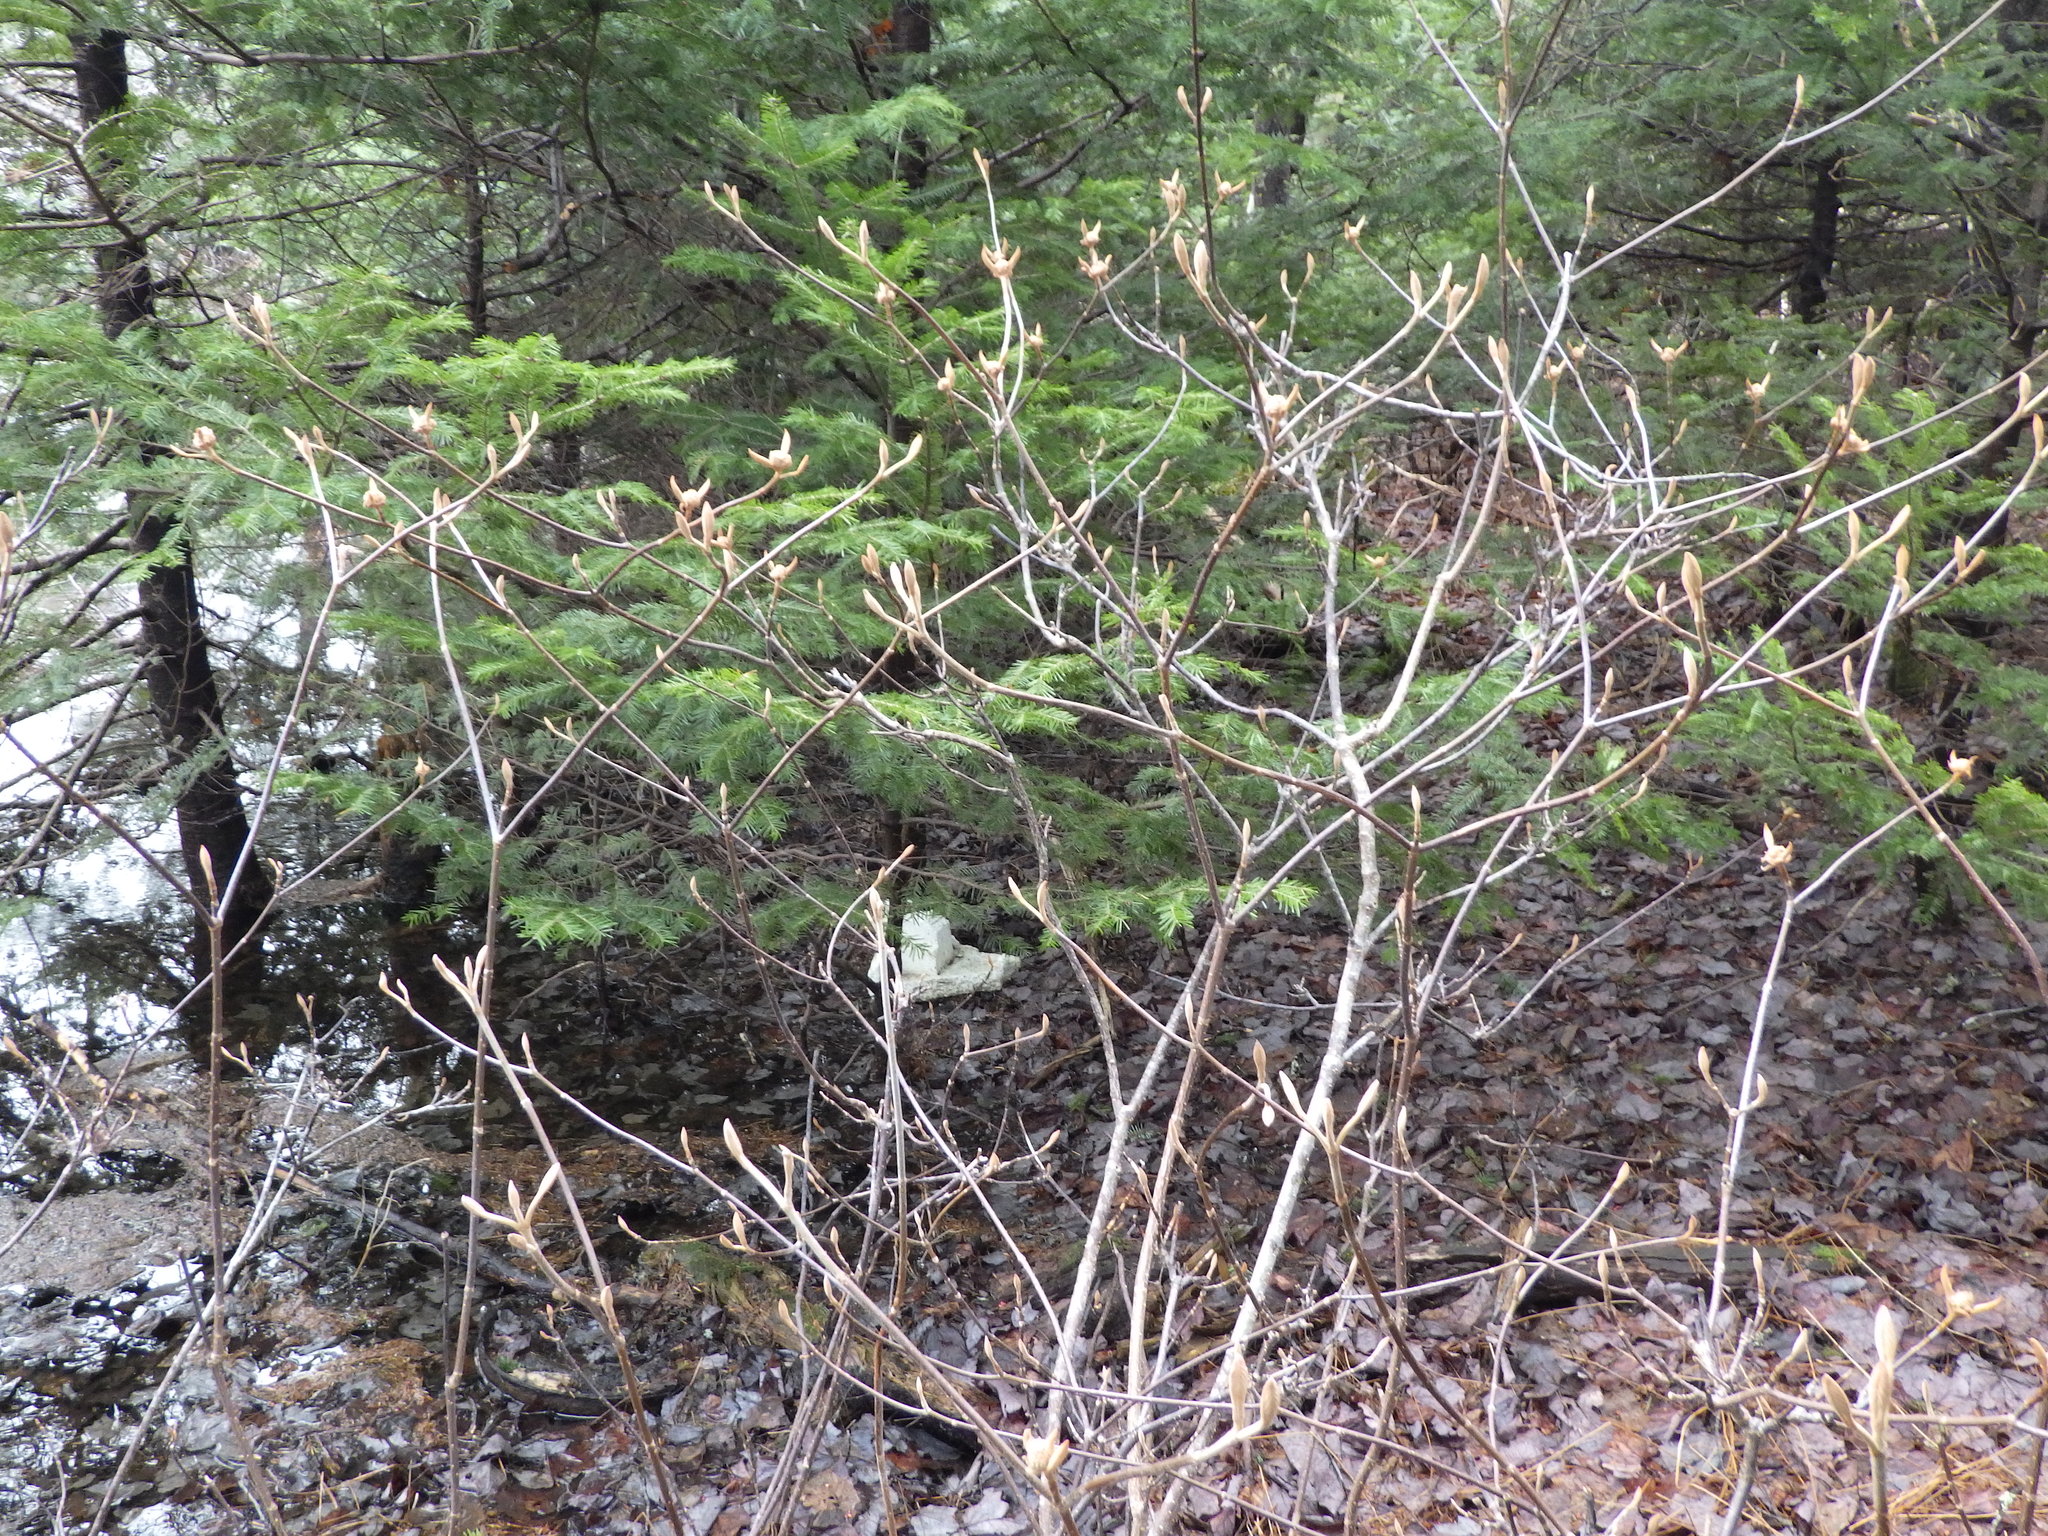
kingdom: Plantae
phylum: Tracheophyta
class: Magnoliopsida
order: Dipsacales
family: Viburnaceae
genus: Viburnum
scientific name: Viburnum lantanoides
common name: Hobblebush
